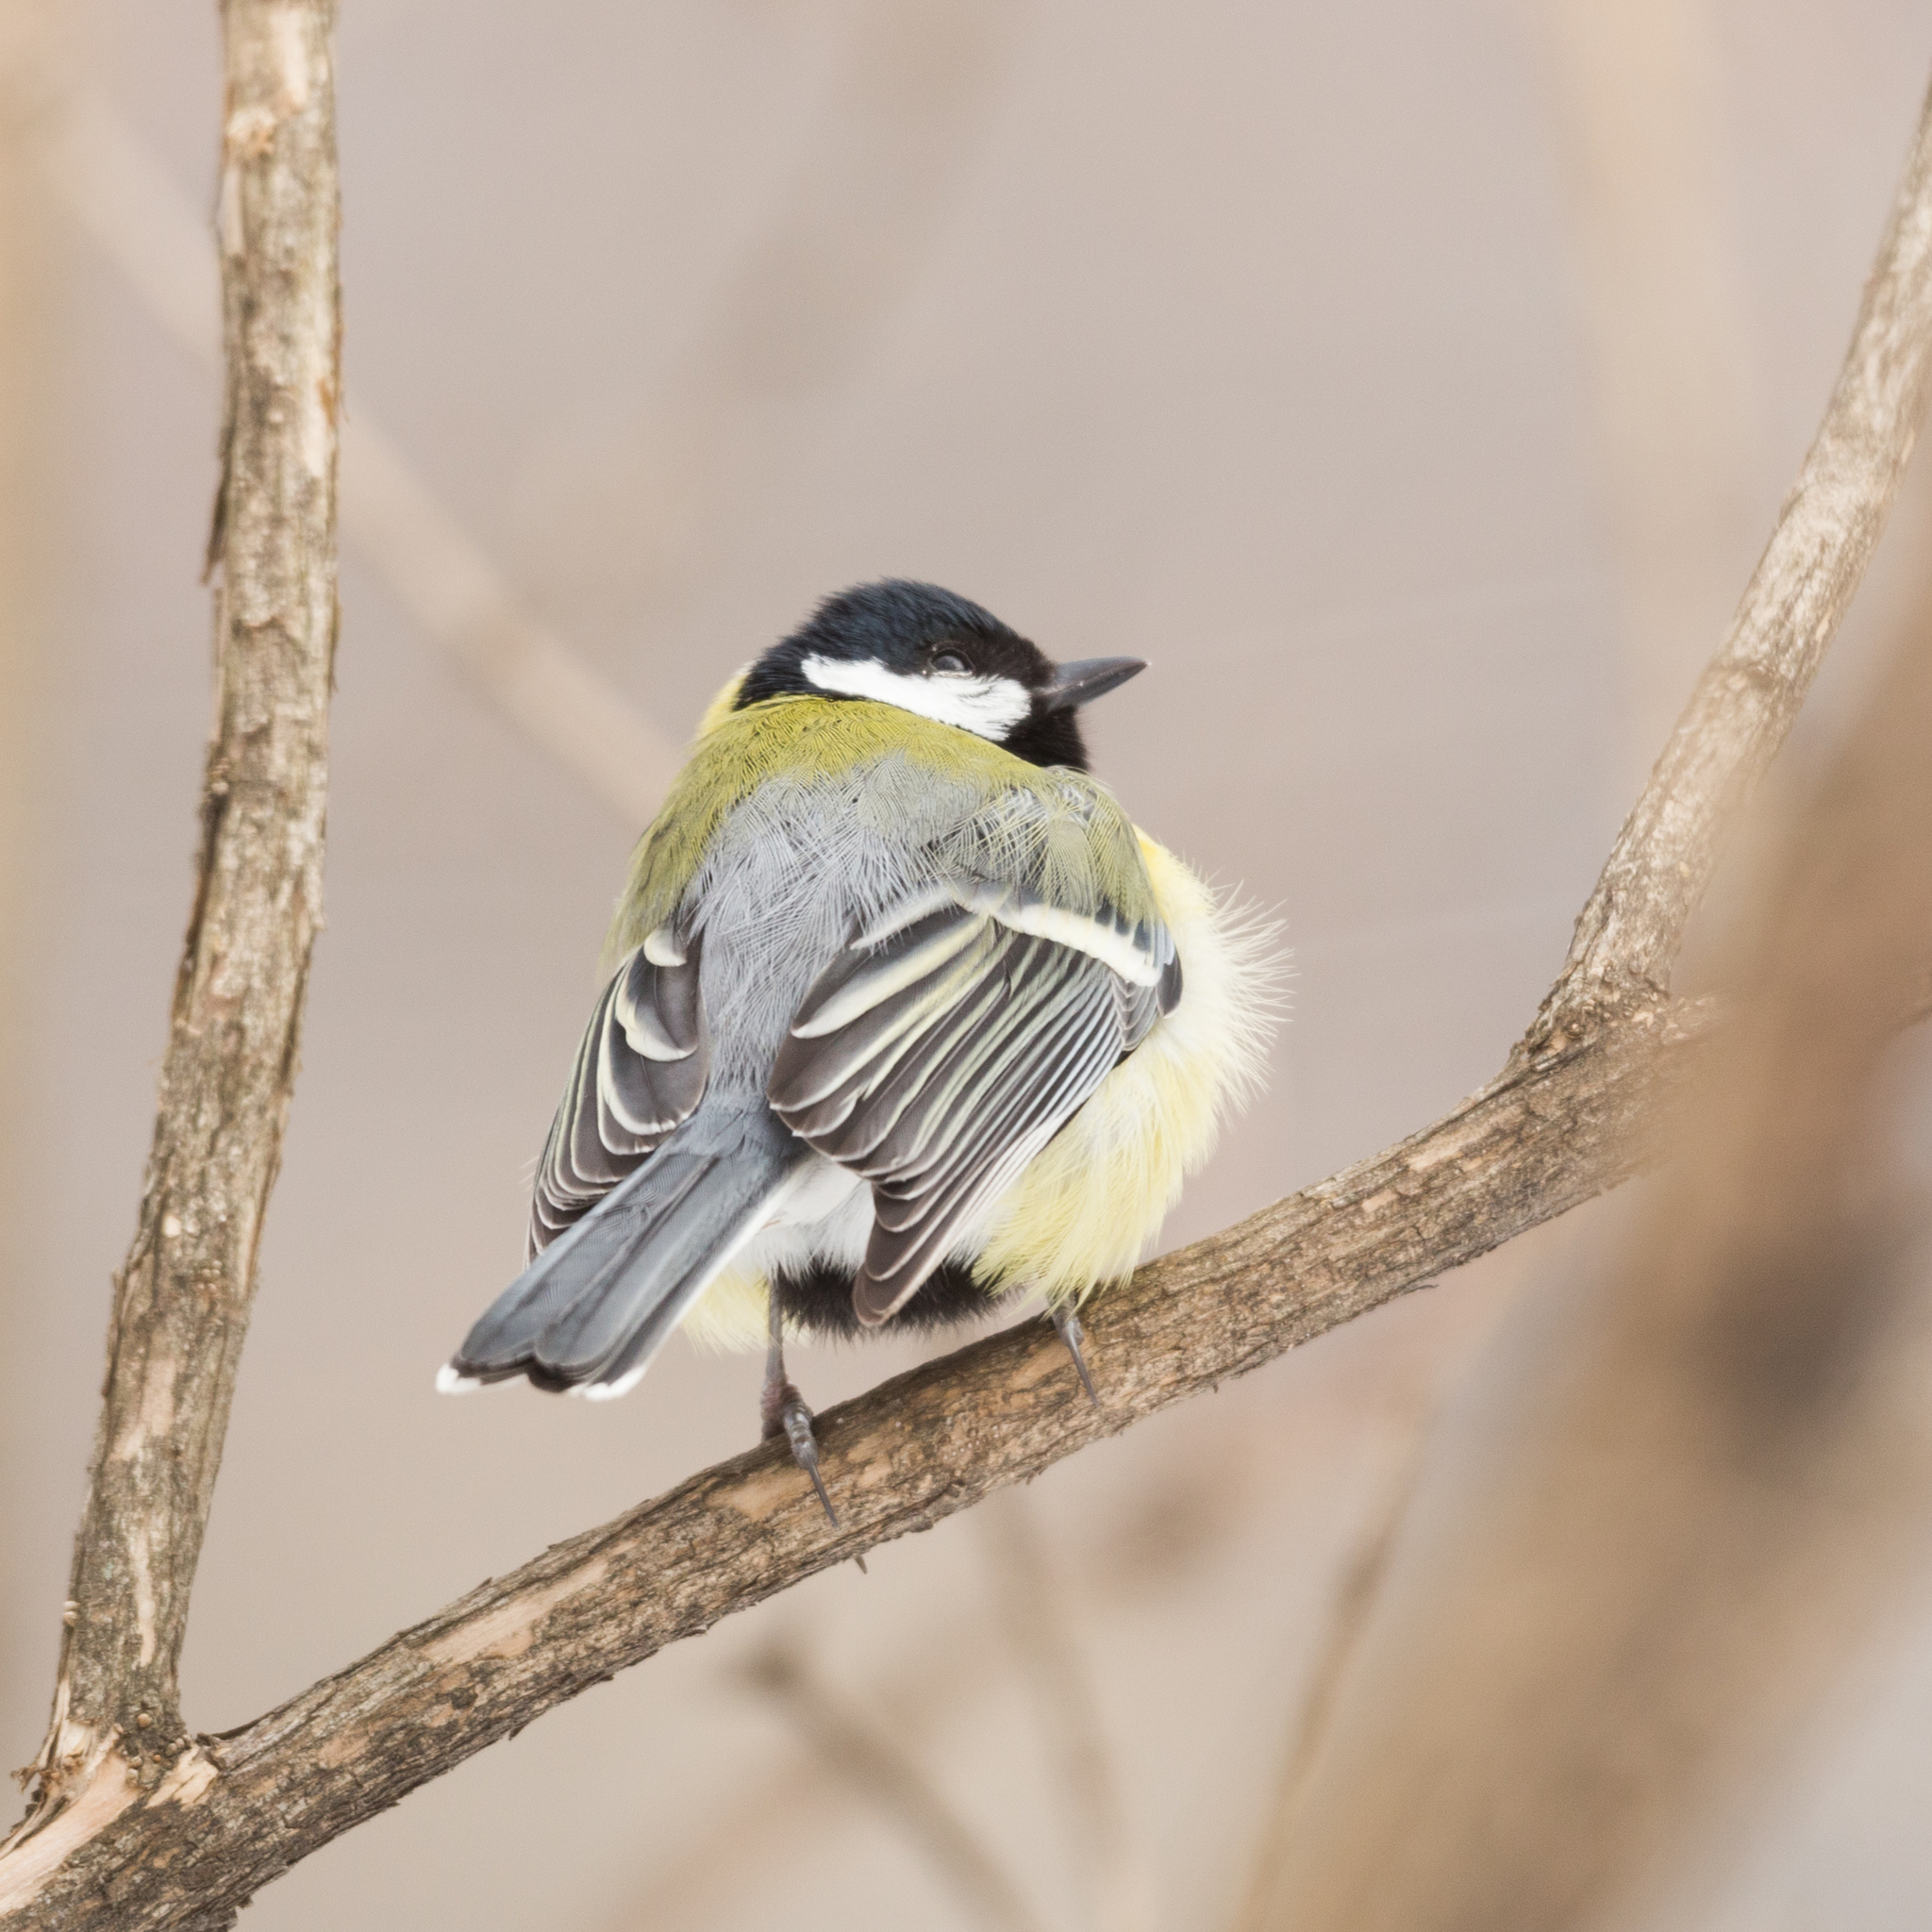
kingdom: Animalia
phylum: Chordata
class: Aves
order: Passeriformes
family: Paridae
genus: Parus
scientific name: Parus major
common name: Great tit
